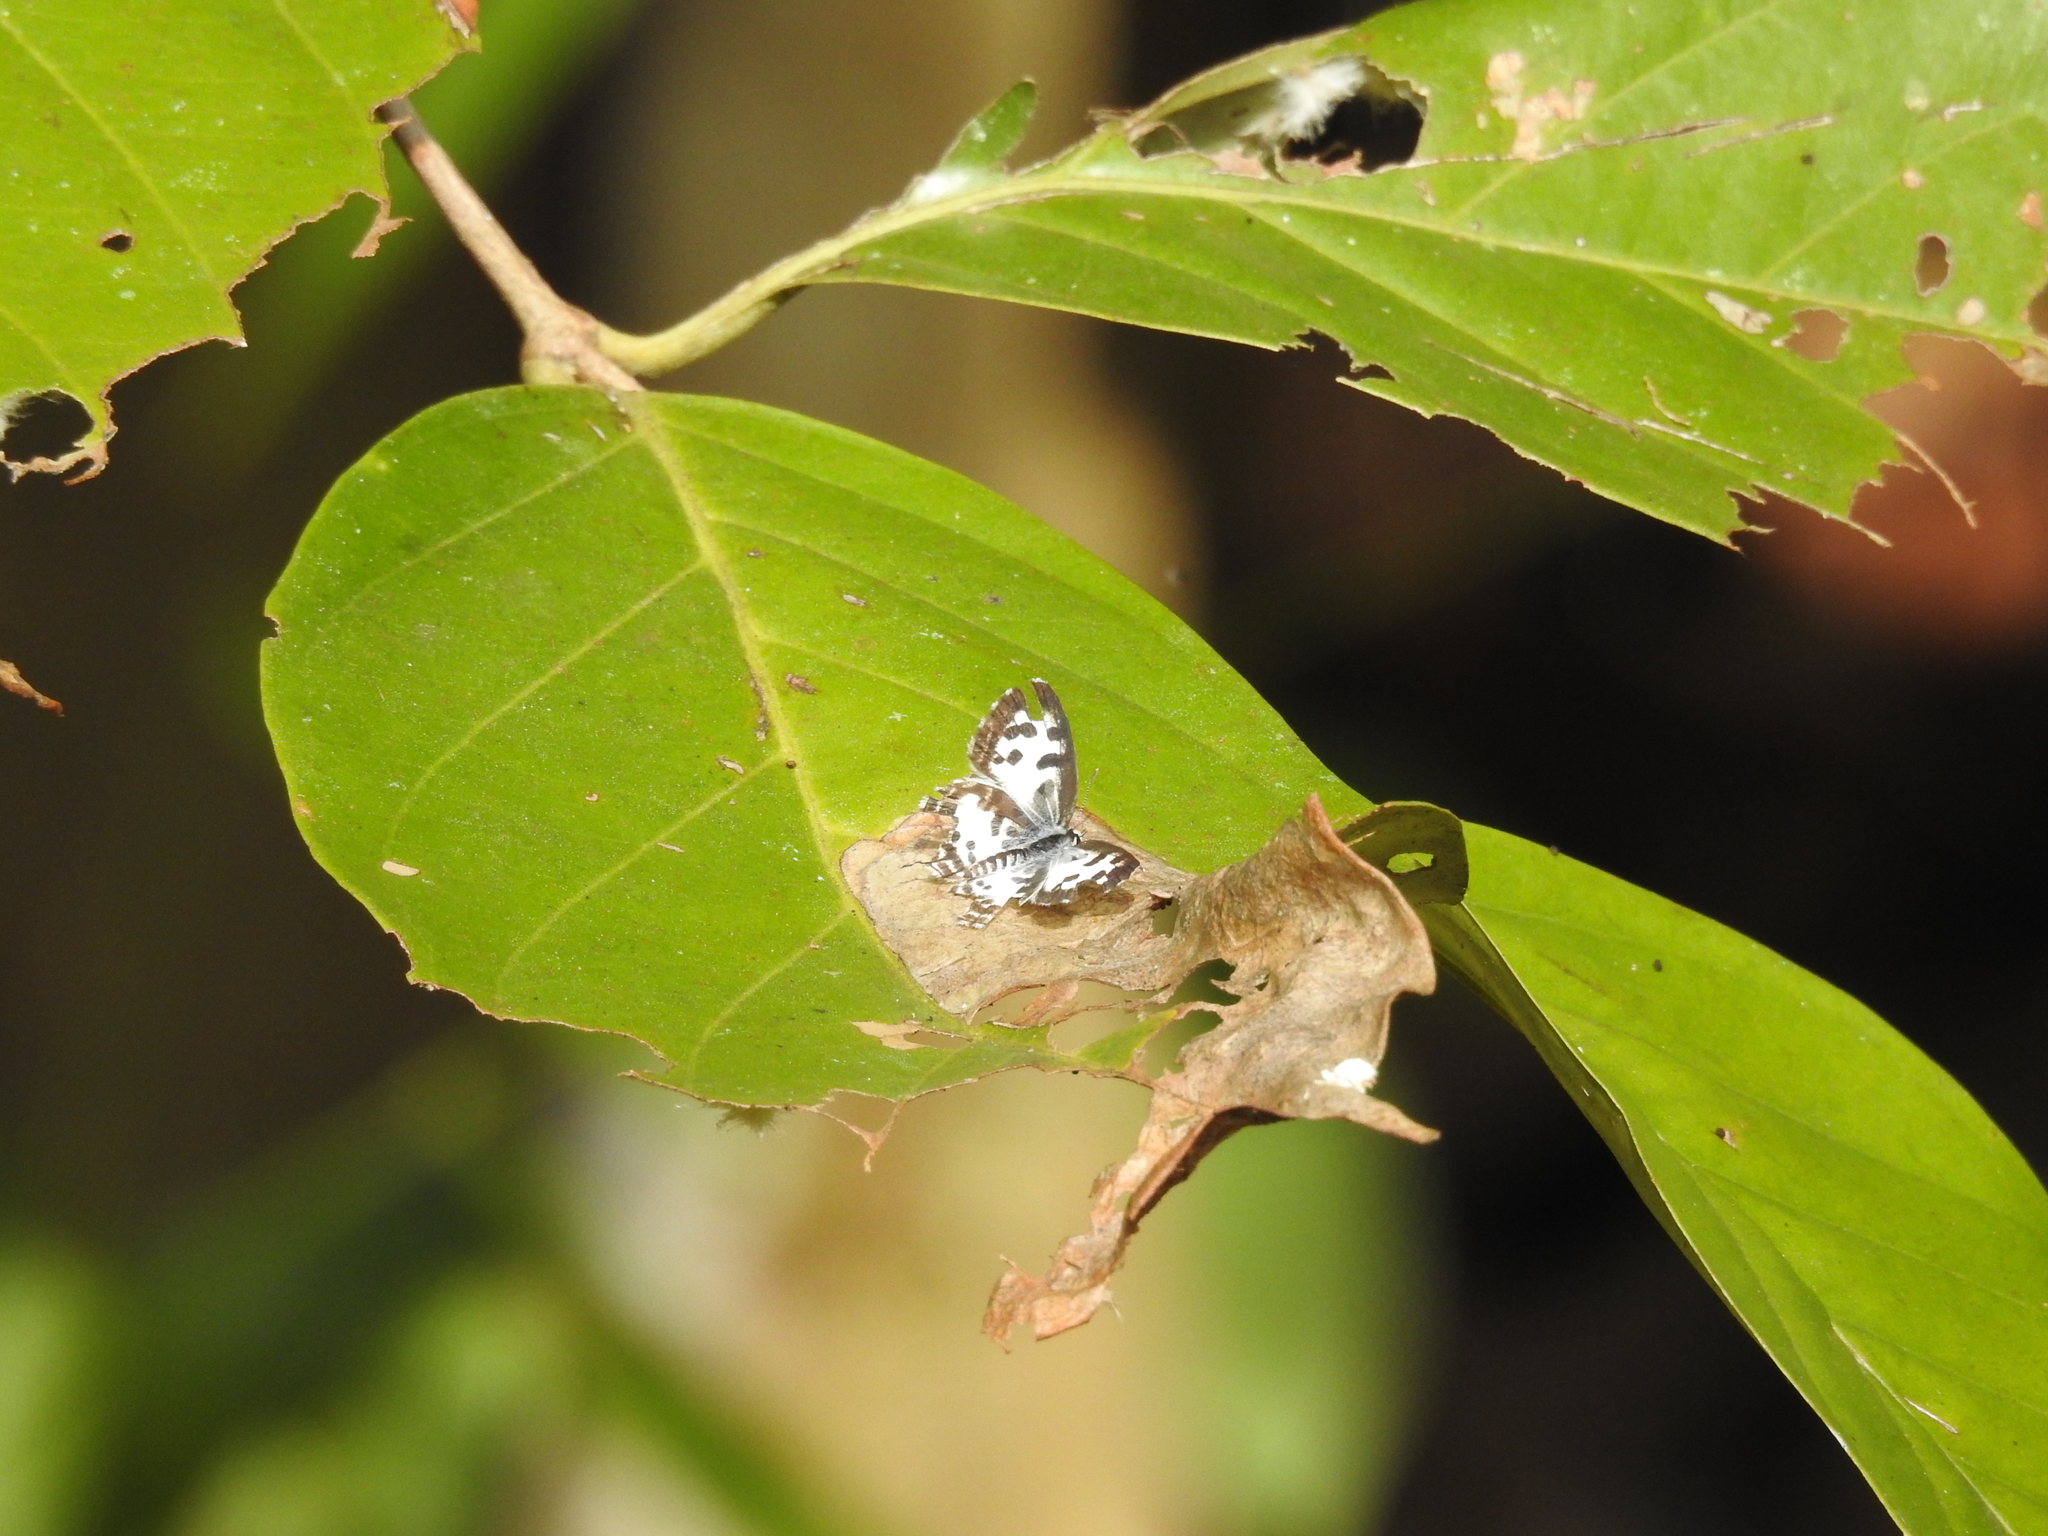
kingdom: Animalia
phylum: Arthropoda
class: Insecta
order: Lepidoptera
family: Lycaenidae
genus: Castalius
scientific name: Castalius rosimon
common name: Common pierrot
